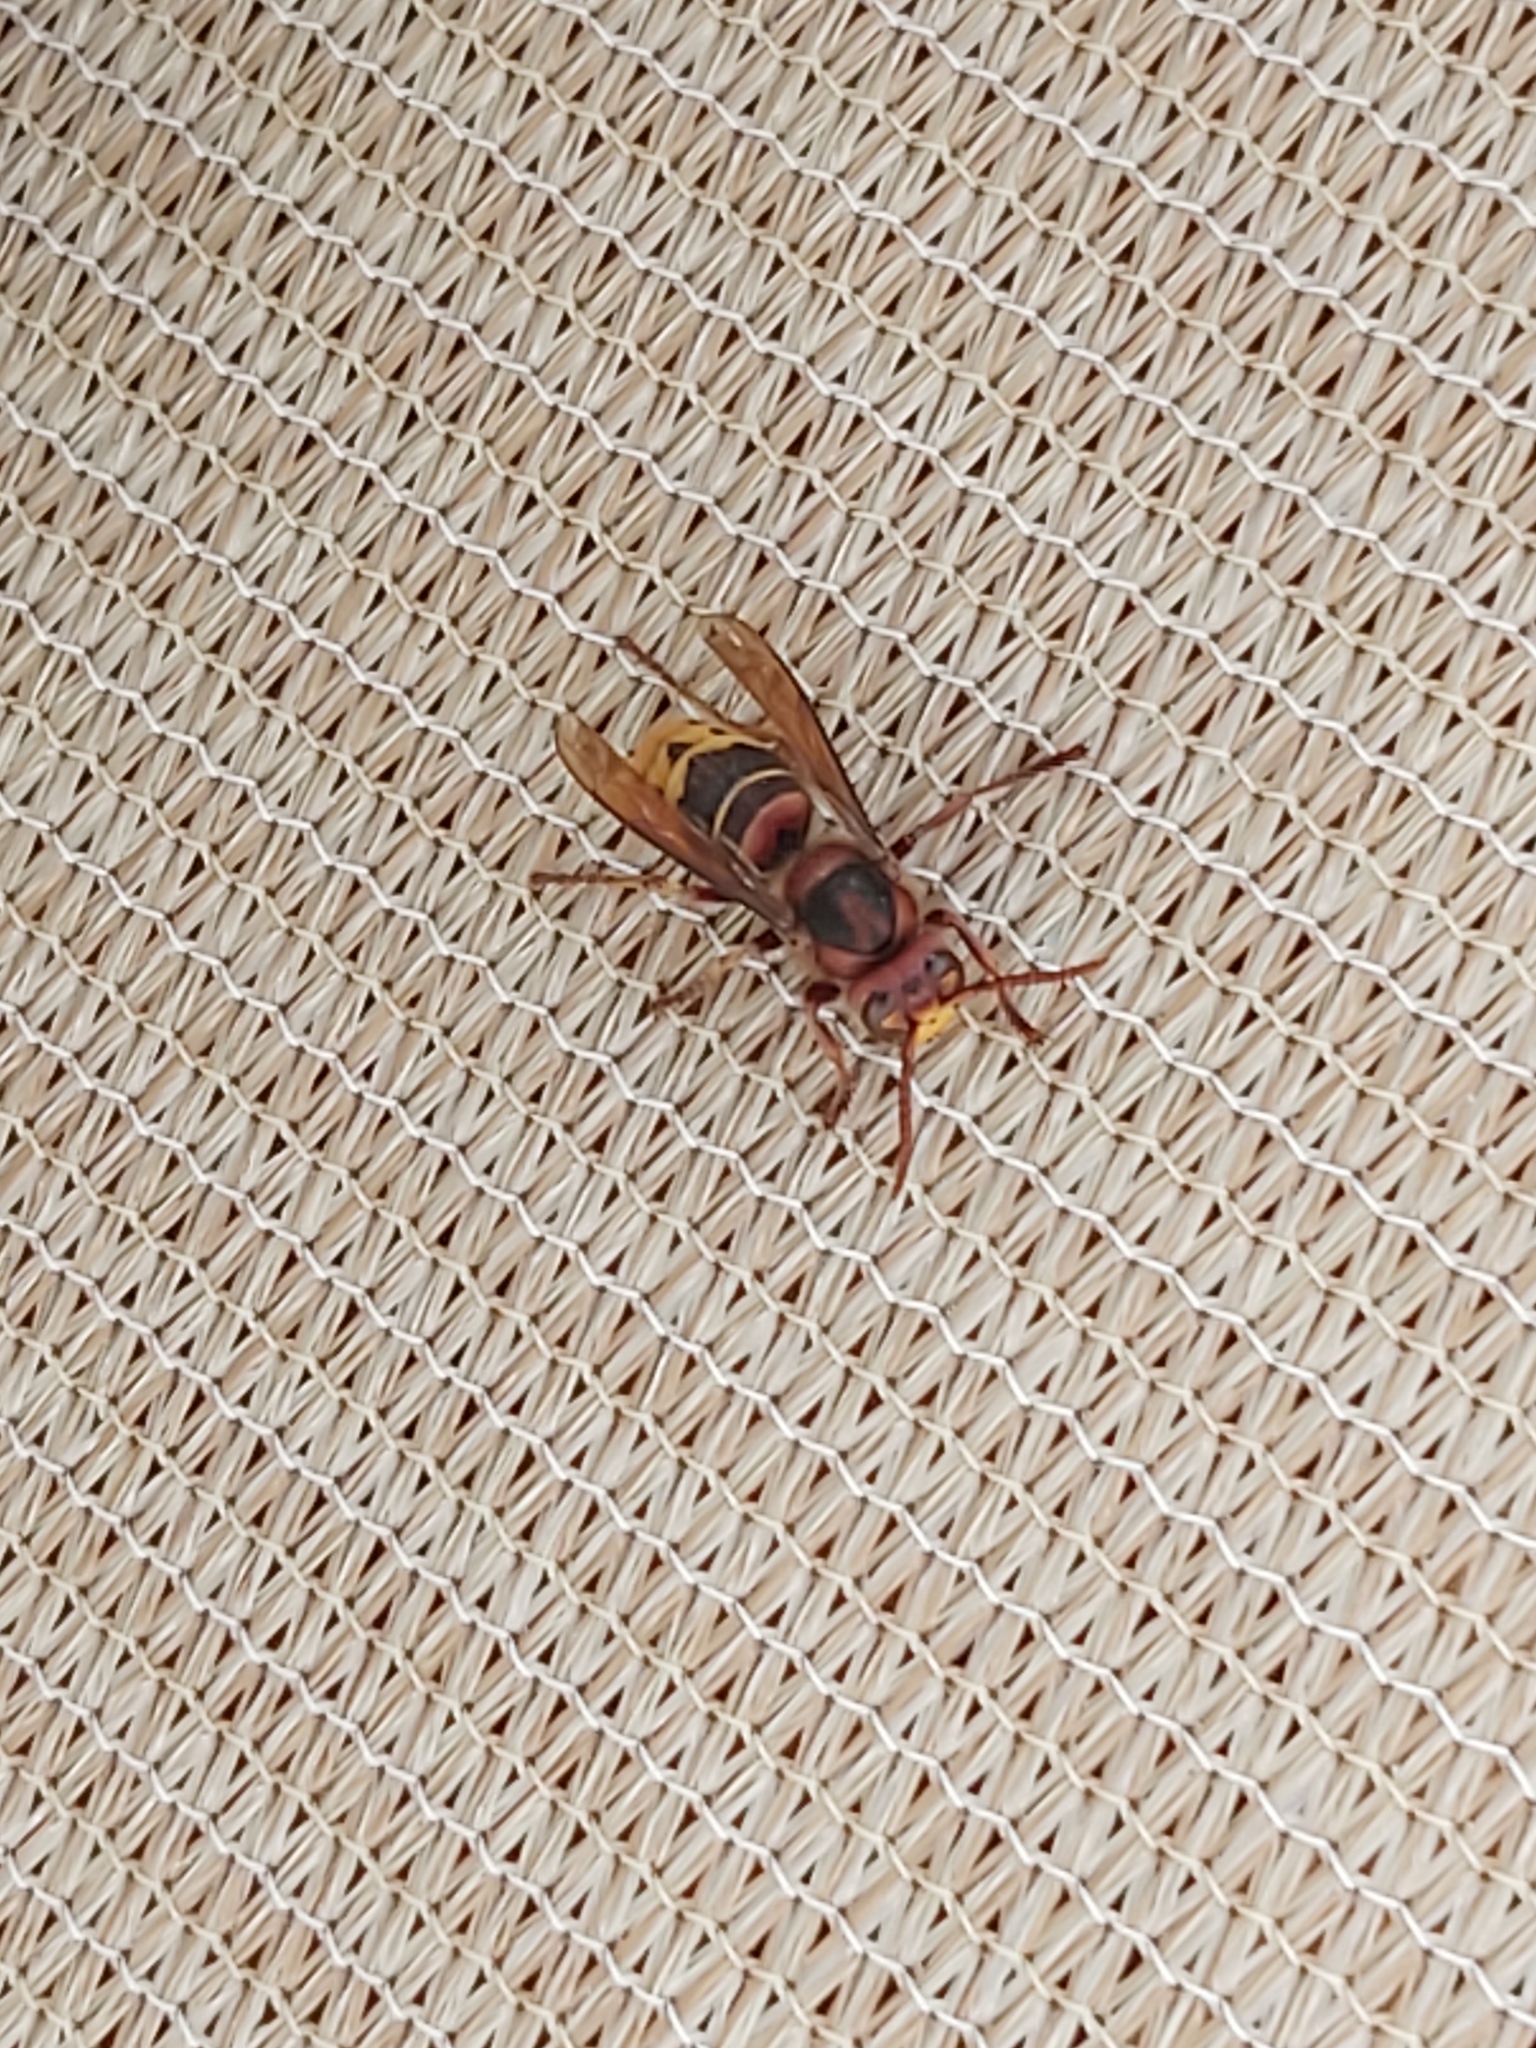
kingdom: Animalia
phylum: Arthropoda
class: Insecta
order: Hymenoptera
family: Vespidae
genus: Vespa
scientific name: Vespa crabro
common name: Hornet
